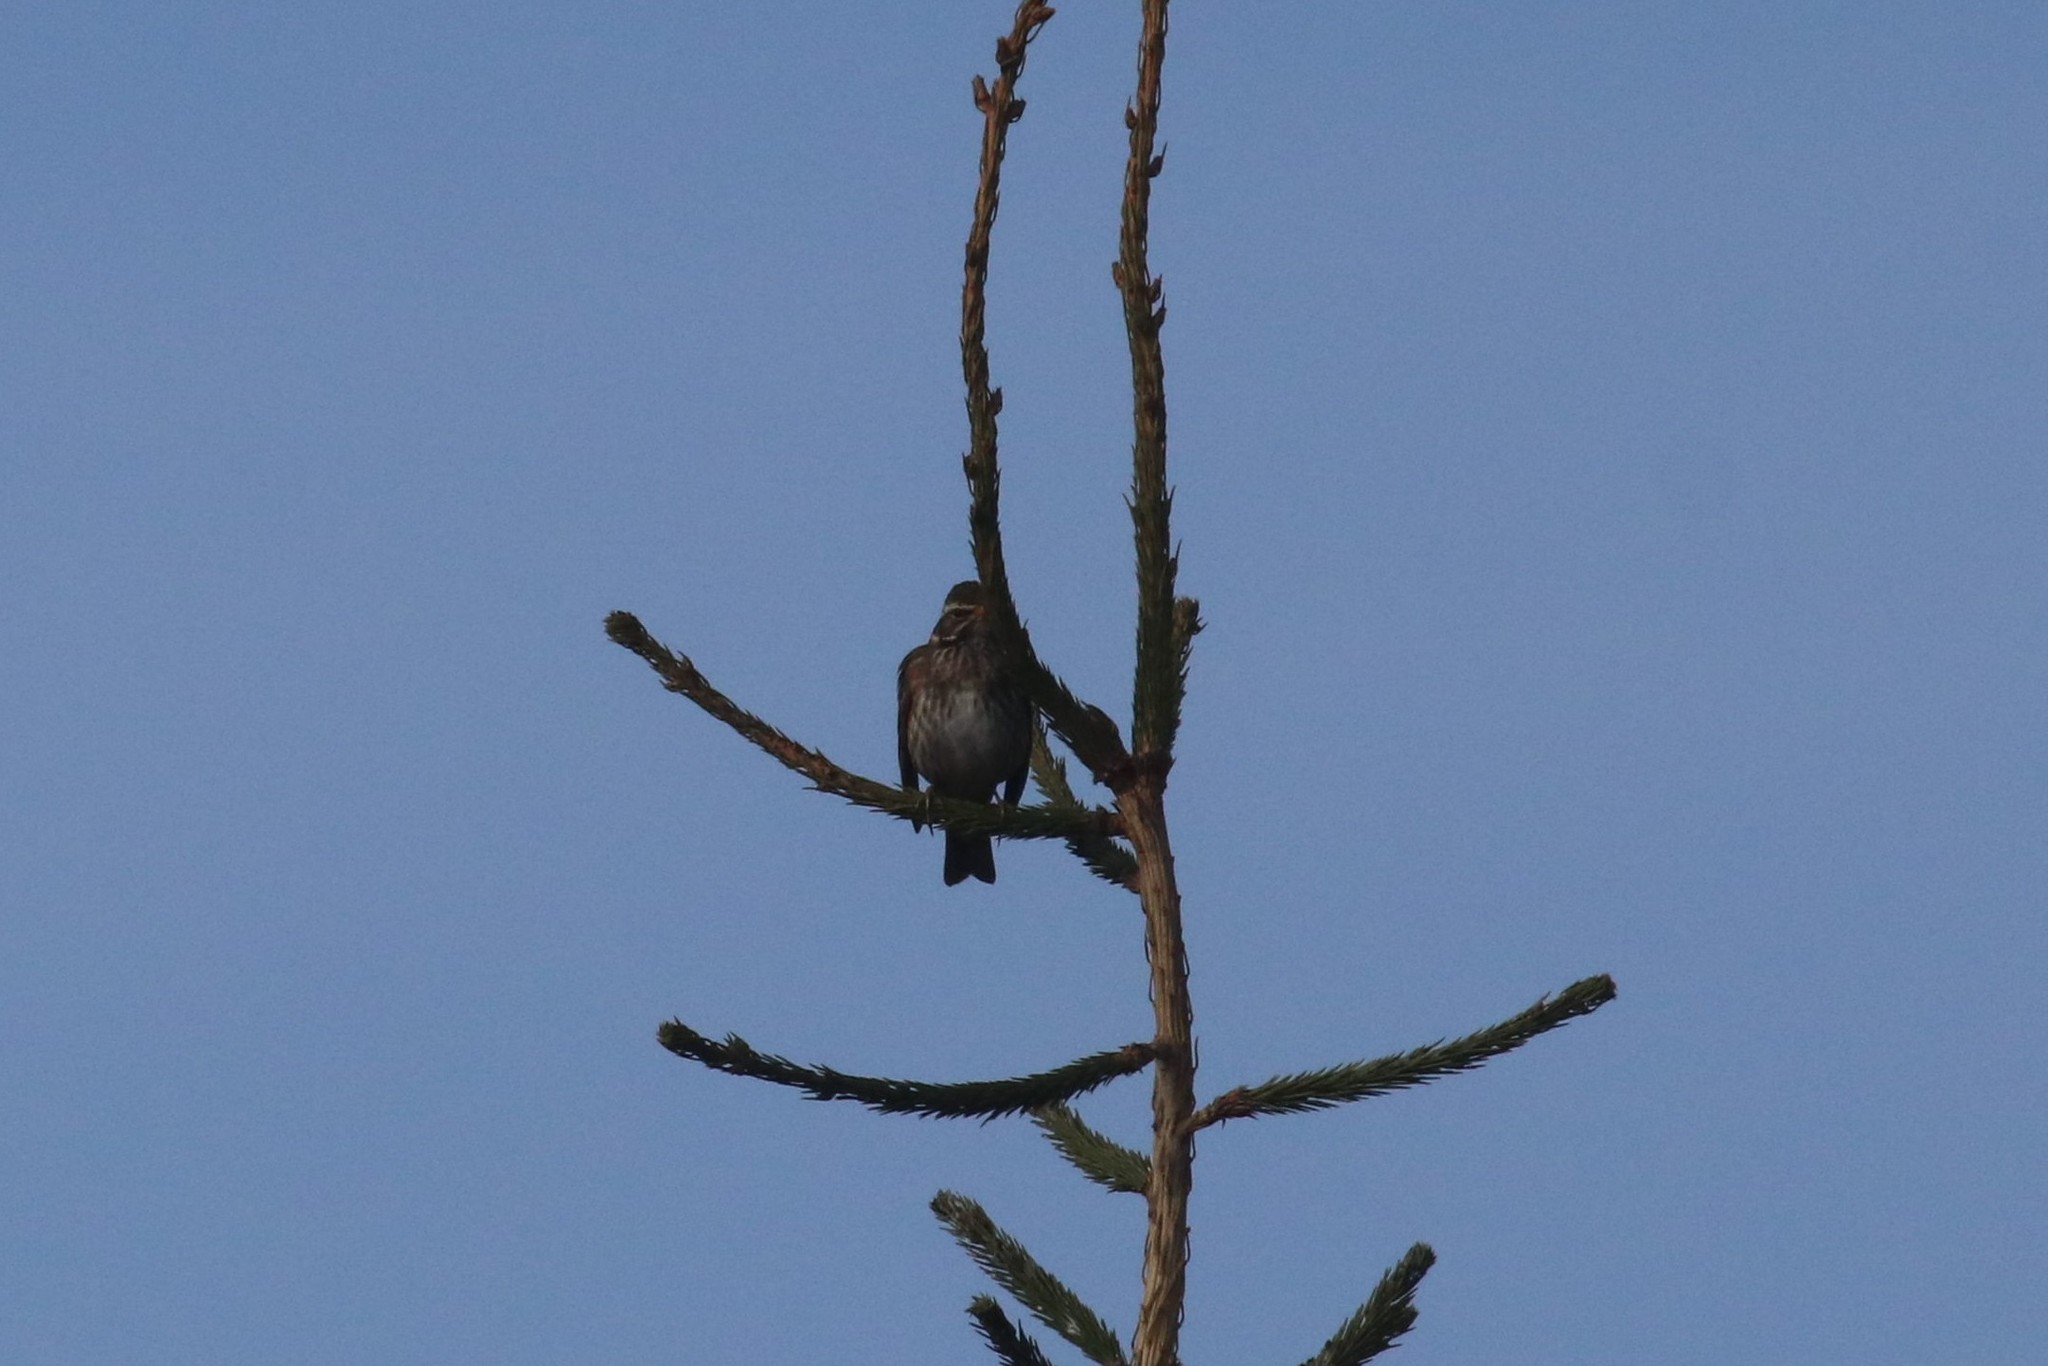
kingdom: Animalia
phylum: Chordata
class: Aves
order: Passeriformes
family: Turdidae
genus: Turdus
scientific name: Turdus iliacus
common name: Redwing
